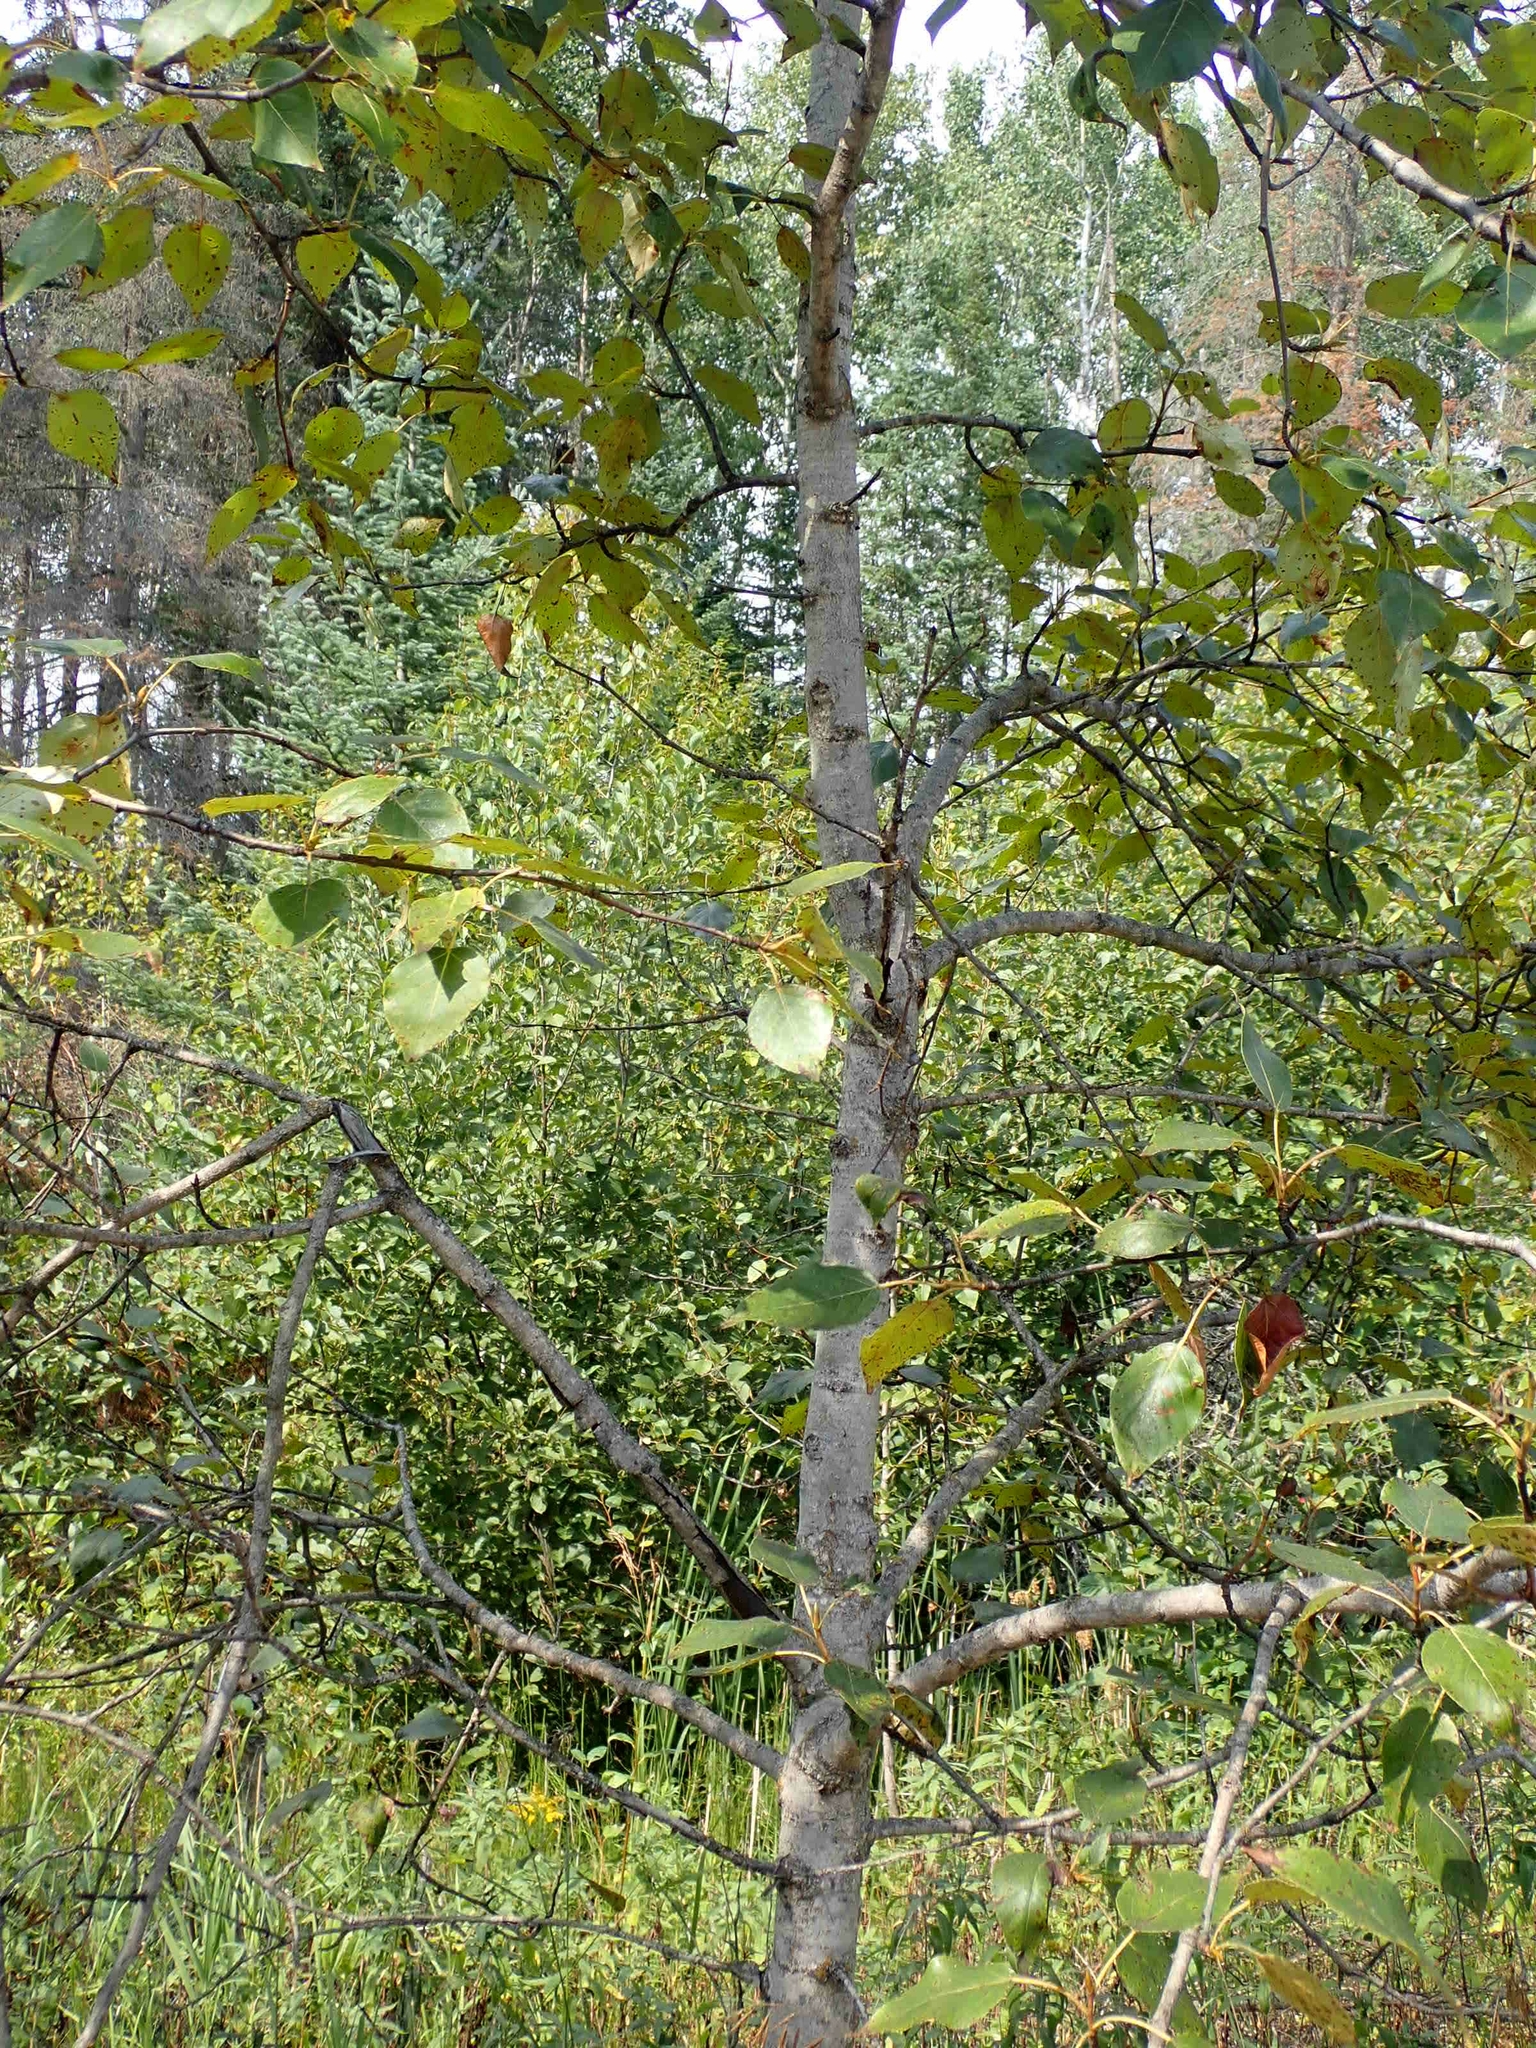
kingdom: Plantae
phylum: Tracheophyta
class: Magnoliopsida
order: Malpighiales
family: Salicaceae
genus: Populus
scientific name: Populus balsamifera
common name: Balsam poplar
